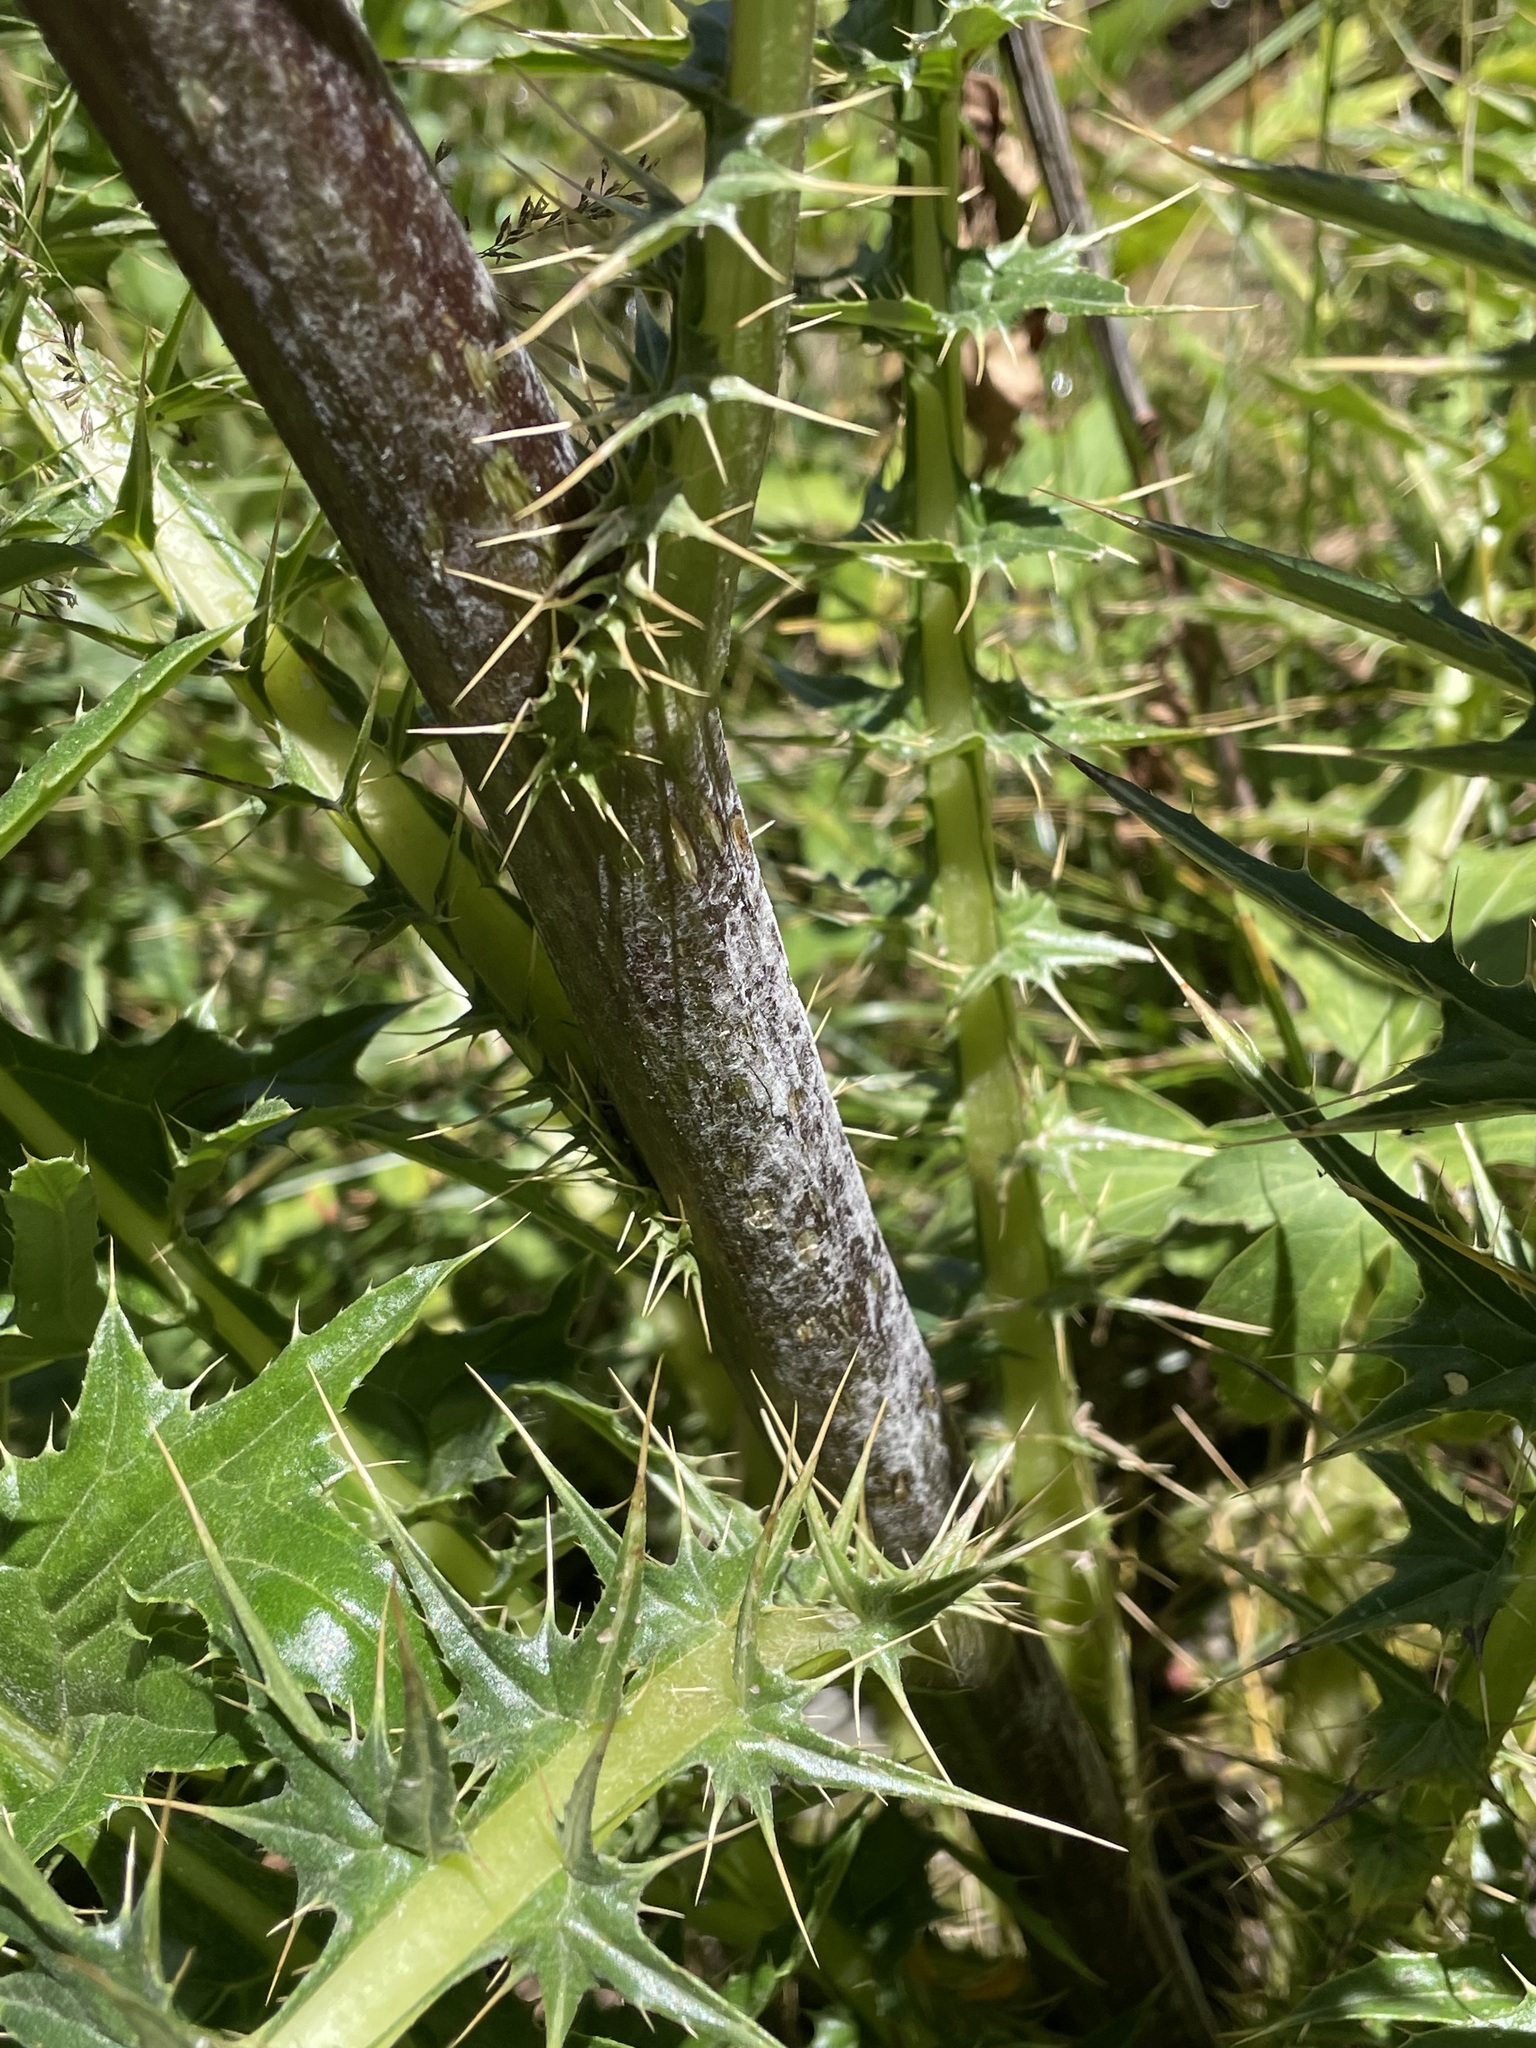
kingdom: Plantae
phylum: Tracheophyta
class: Magnoliopsida
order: Asterales
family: Asteraceae
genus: Cirsium
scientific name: Cirsium vinaceum
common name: Sacramento mountain thistle
